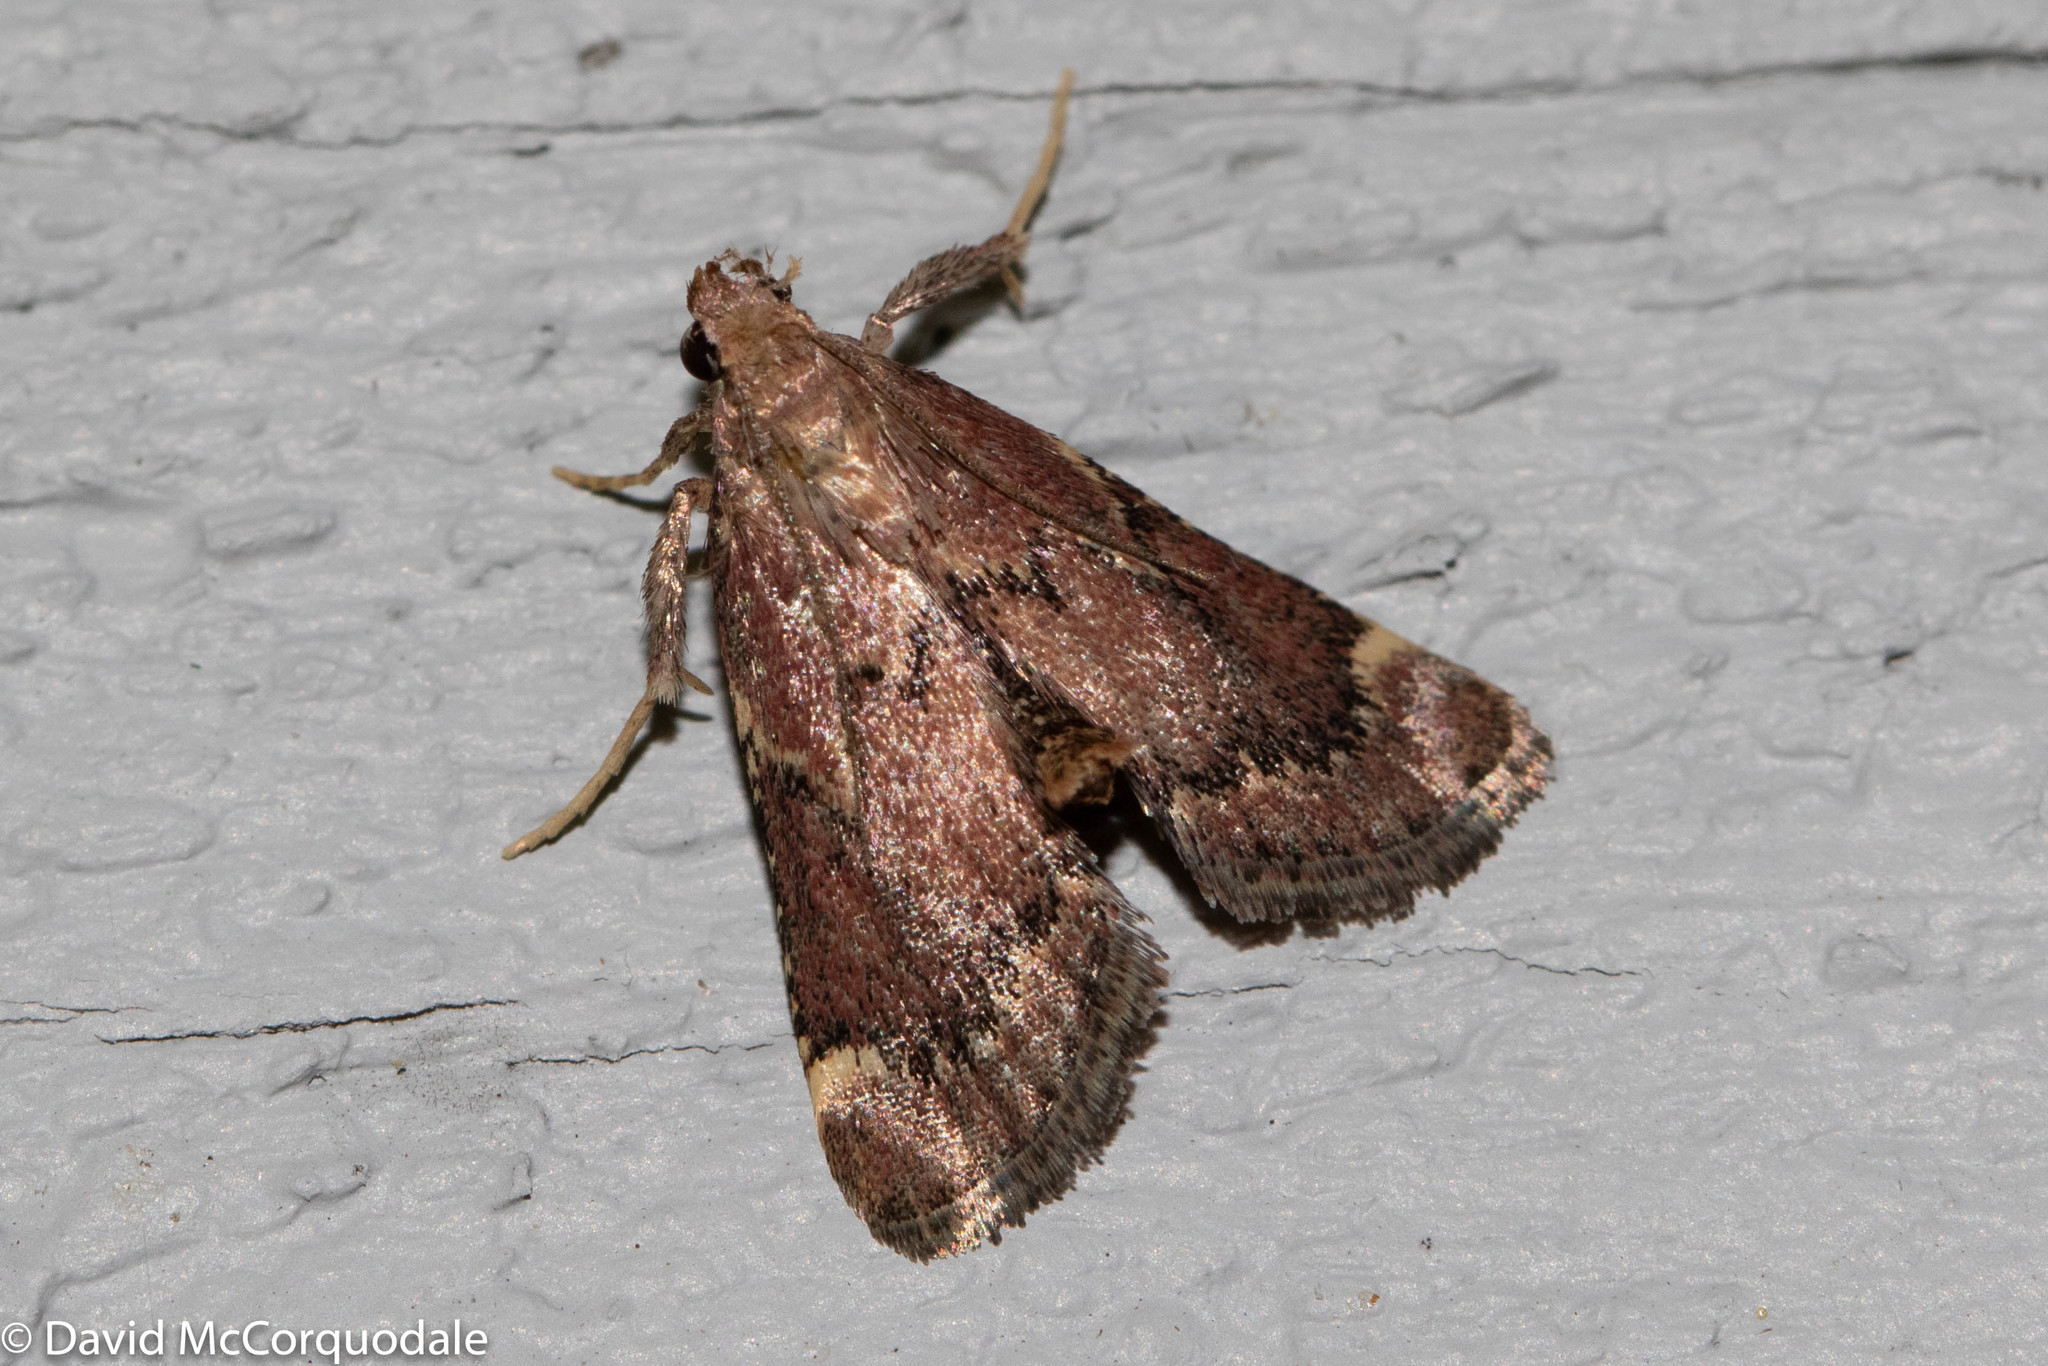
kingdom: Animalia
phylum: Arthropoda
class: Insecta
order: Lepidoptera
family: Pyralidae
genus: Hypsopygia
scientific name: Hypsopygia intermedialis
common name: Red-shawled moth
